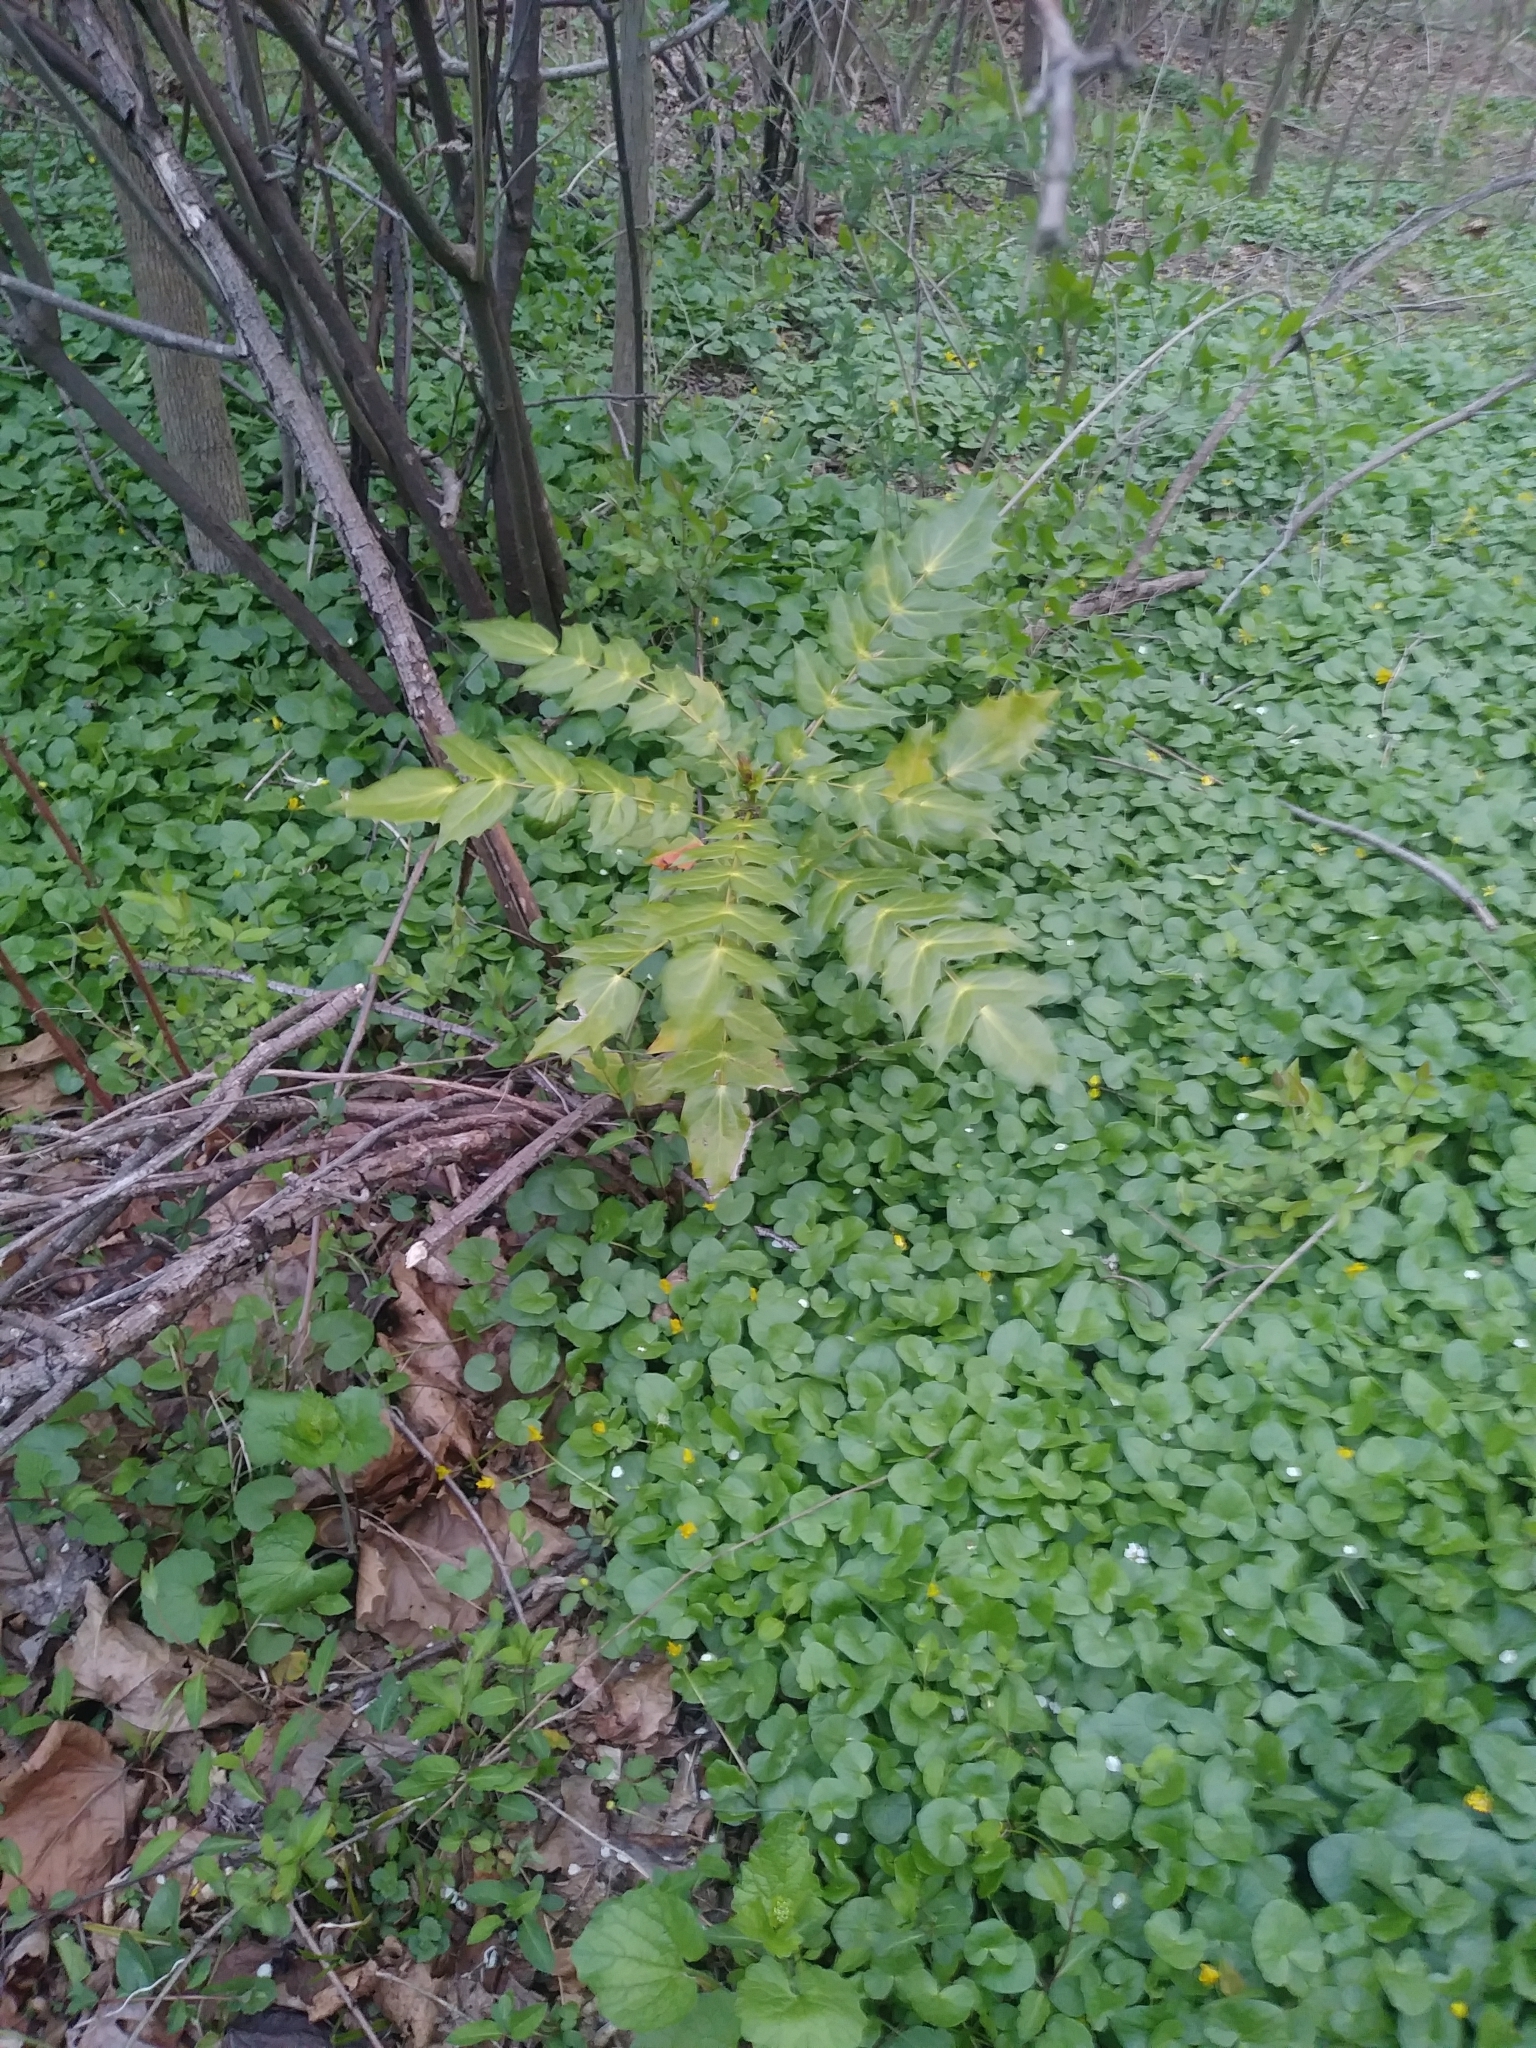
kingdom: Plantae
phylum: Tracheophyta
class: Magnoliopsida
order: Ranunculales
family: Berberidaceae
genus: Mahonia
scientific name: Mahonia bealei
